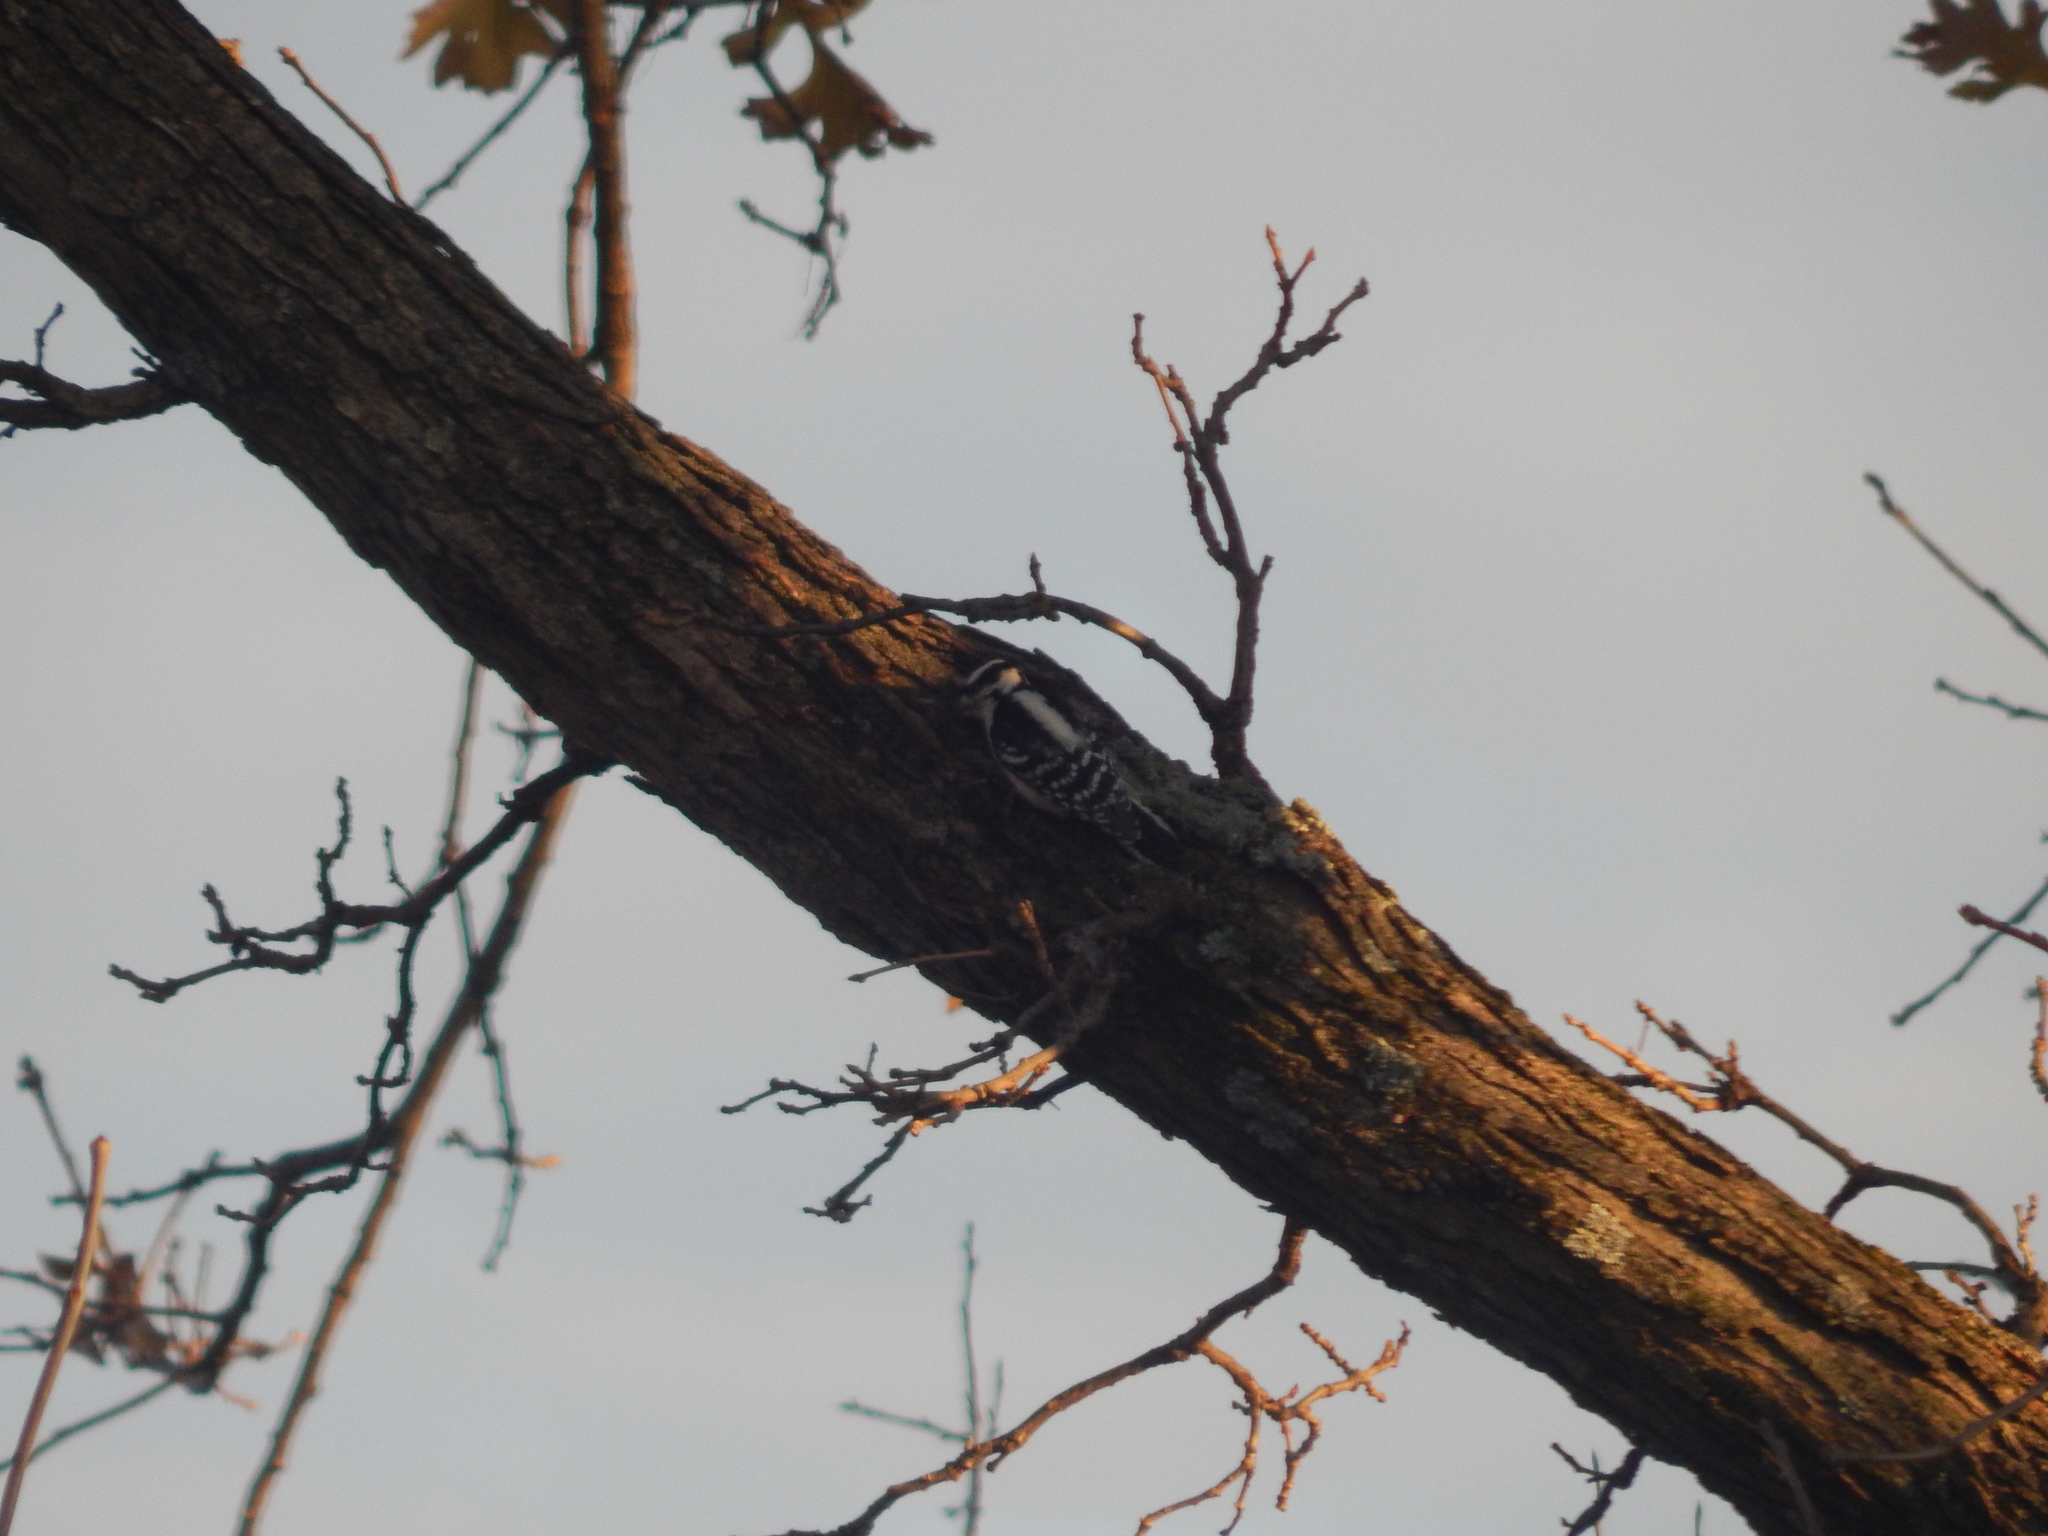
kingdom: Animalia
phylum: Chordata
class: Aves
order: Piciformes
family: Picidae
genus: Dryobates
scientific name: Dryobates pubescens
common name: Downy woodpecker
